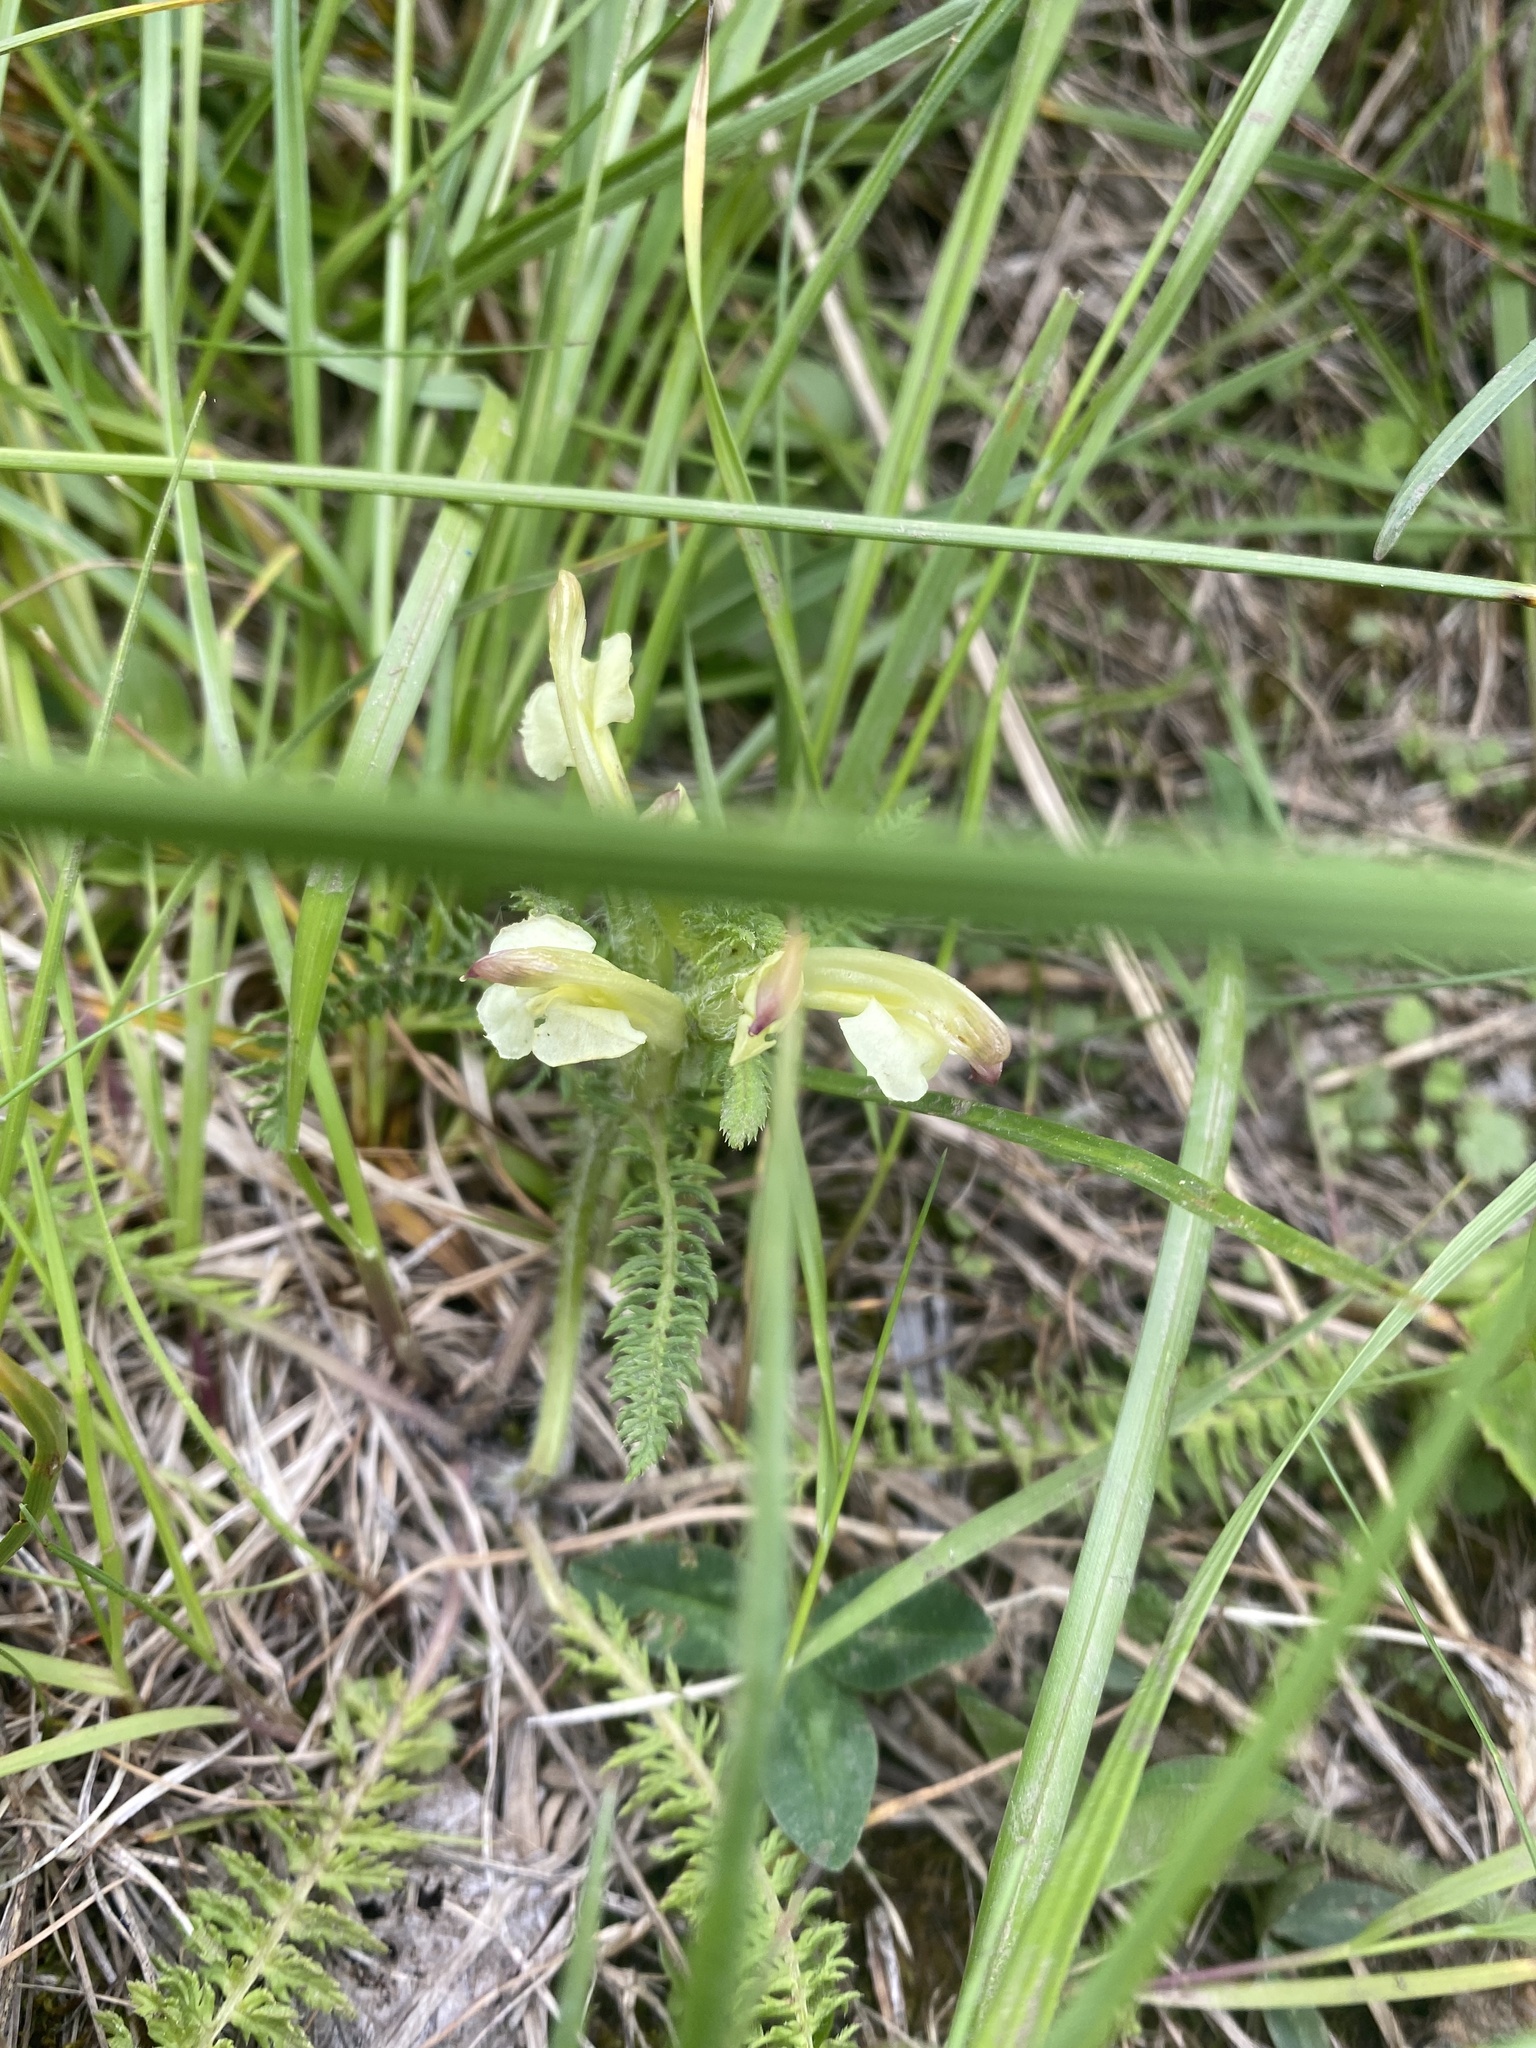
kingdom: Plantae
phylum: Tracheophyta
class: Magnoliopsida
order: Lamiales
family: Orobanchaceae
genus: Pedicularis
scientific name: Pedicularis chroorrhyncha
